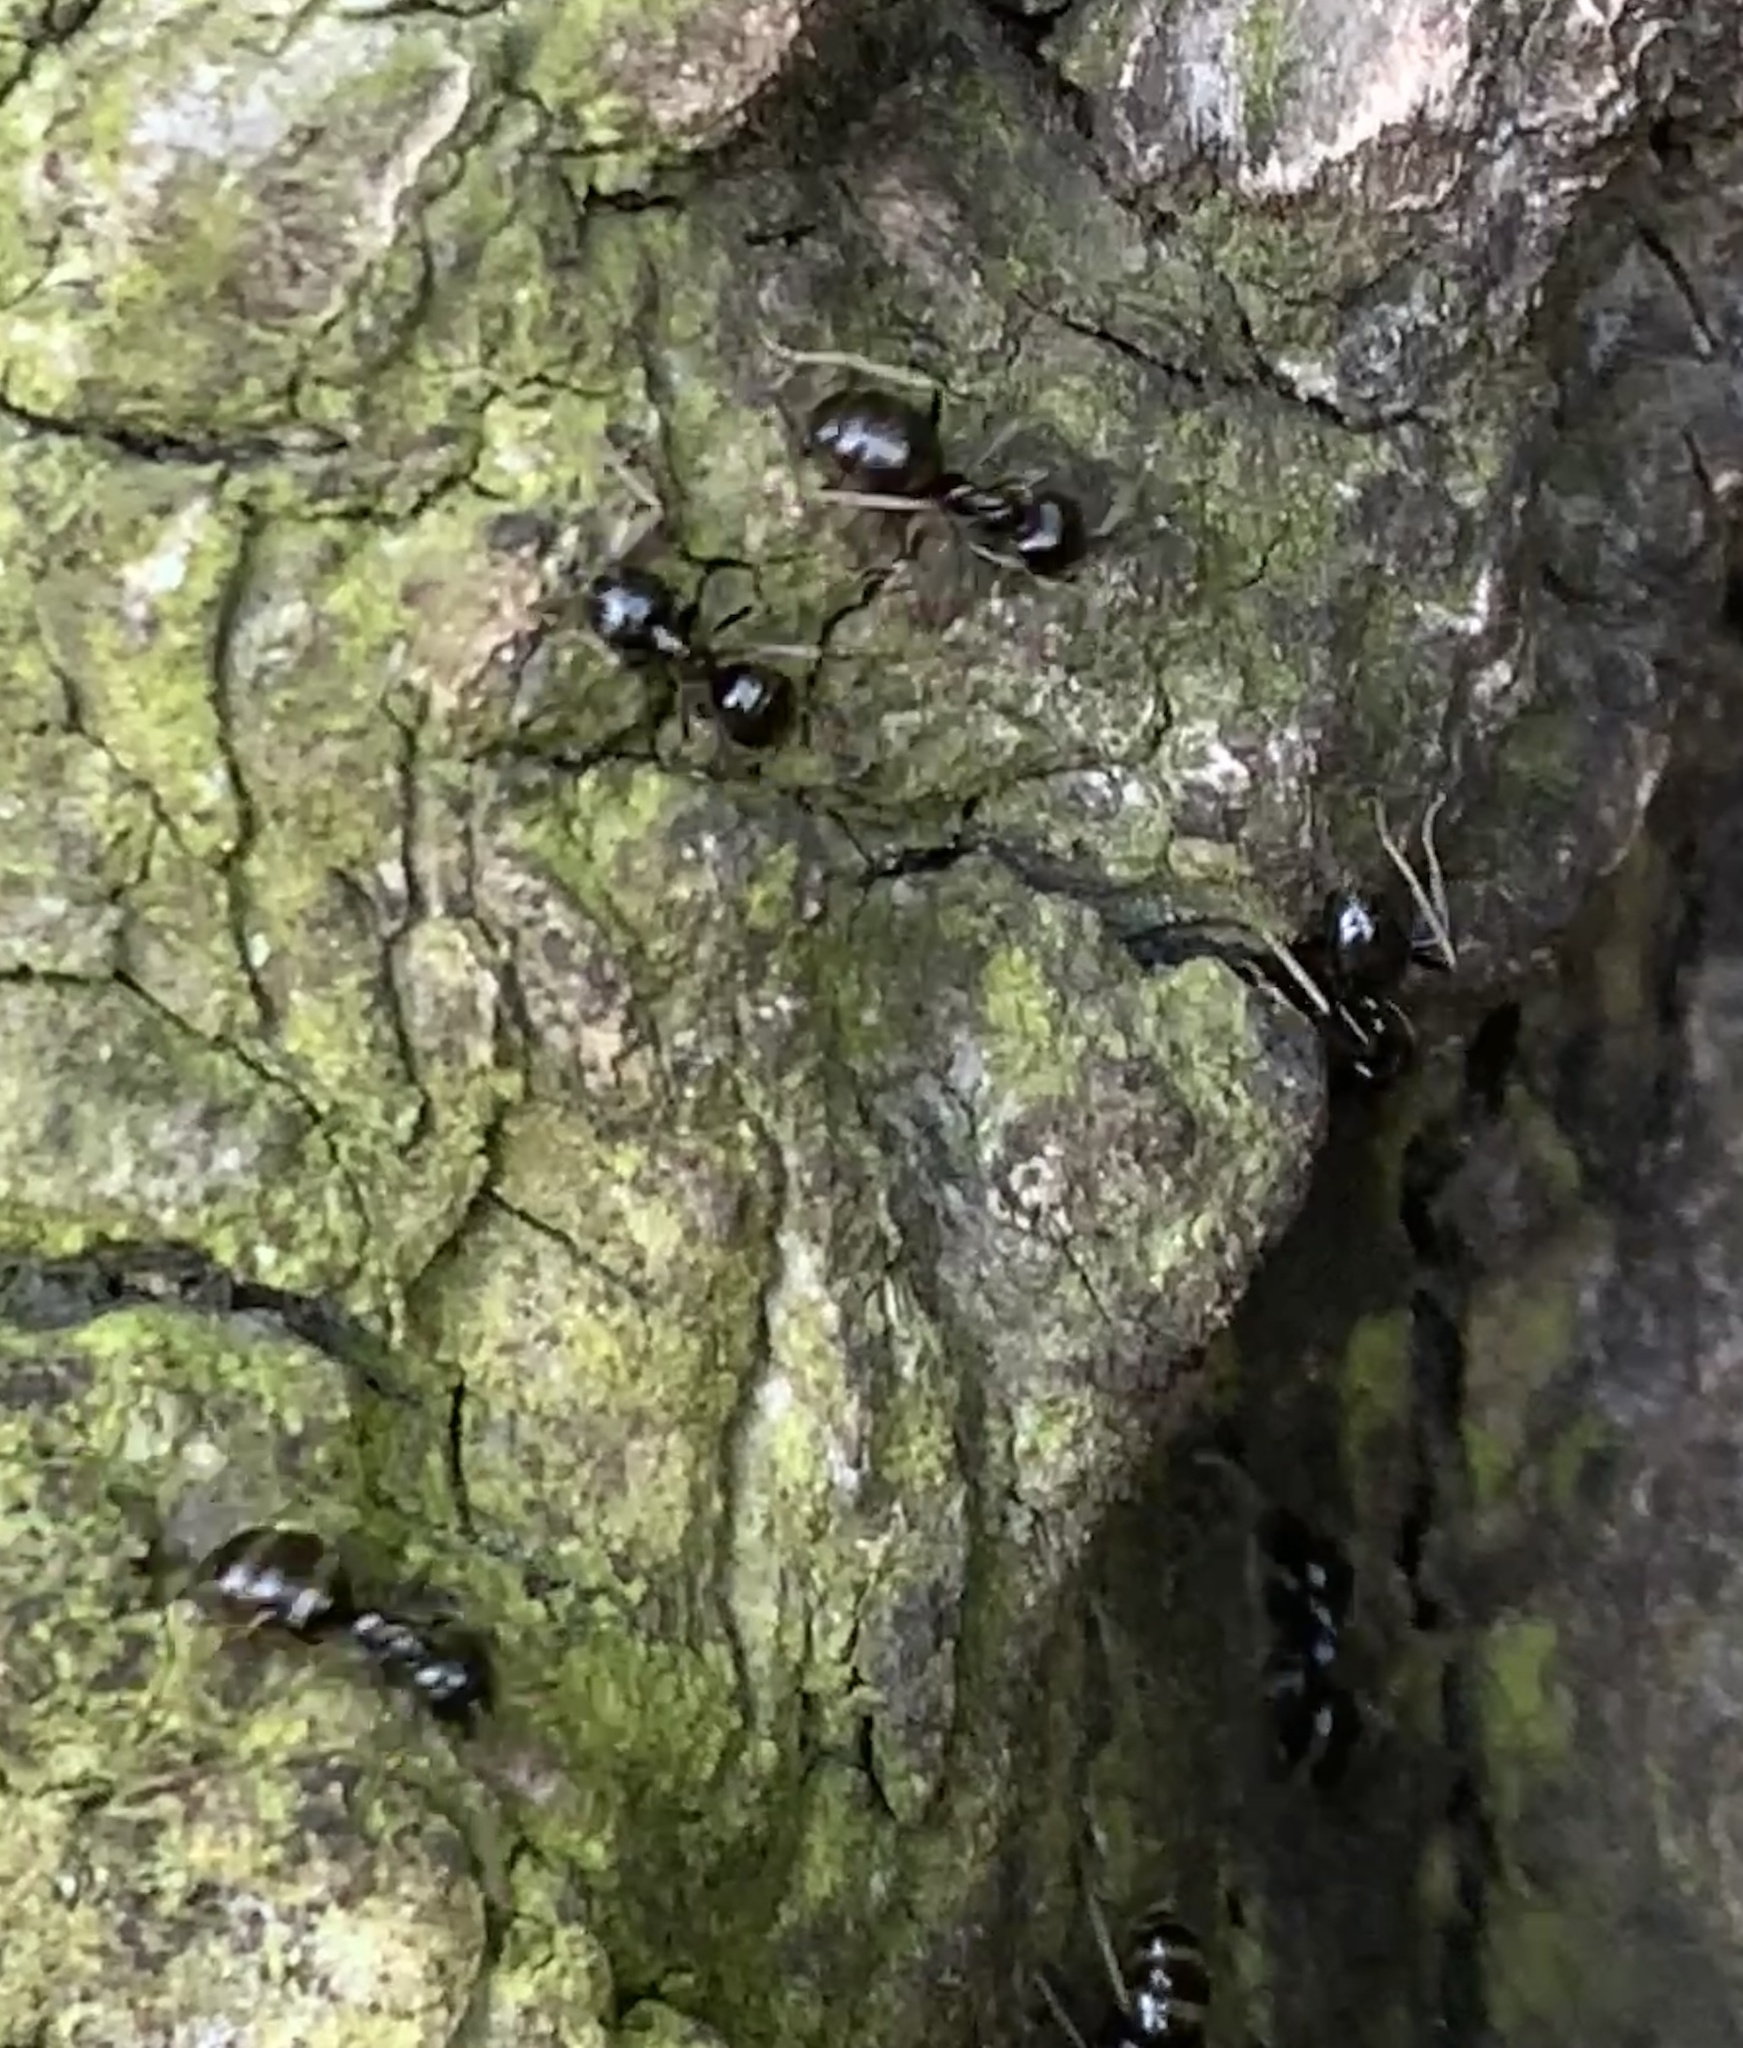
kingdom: Animalia
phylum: Arthropoda
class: Insecta
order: Hymenoptera
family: Formicidae
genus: Lasius
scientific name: Lasius fuliginosus
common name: Jet ant
